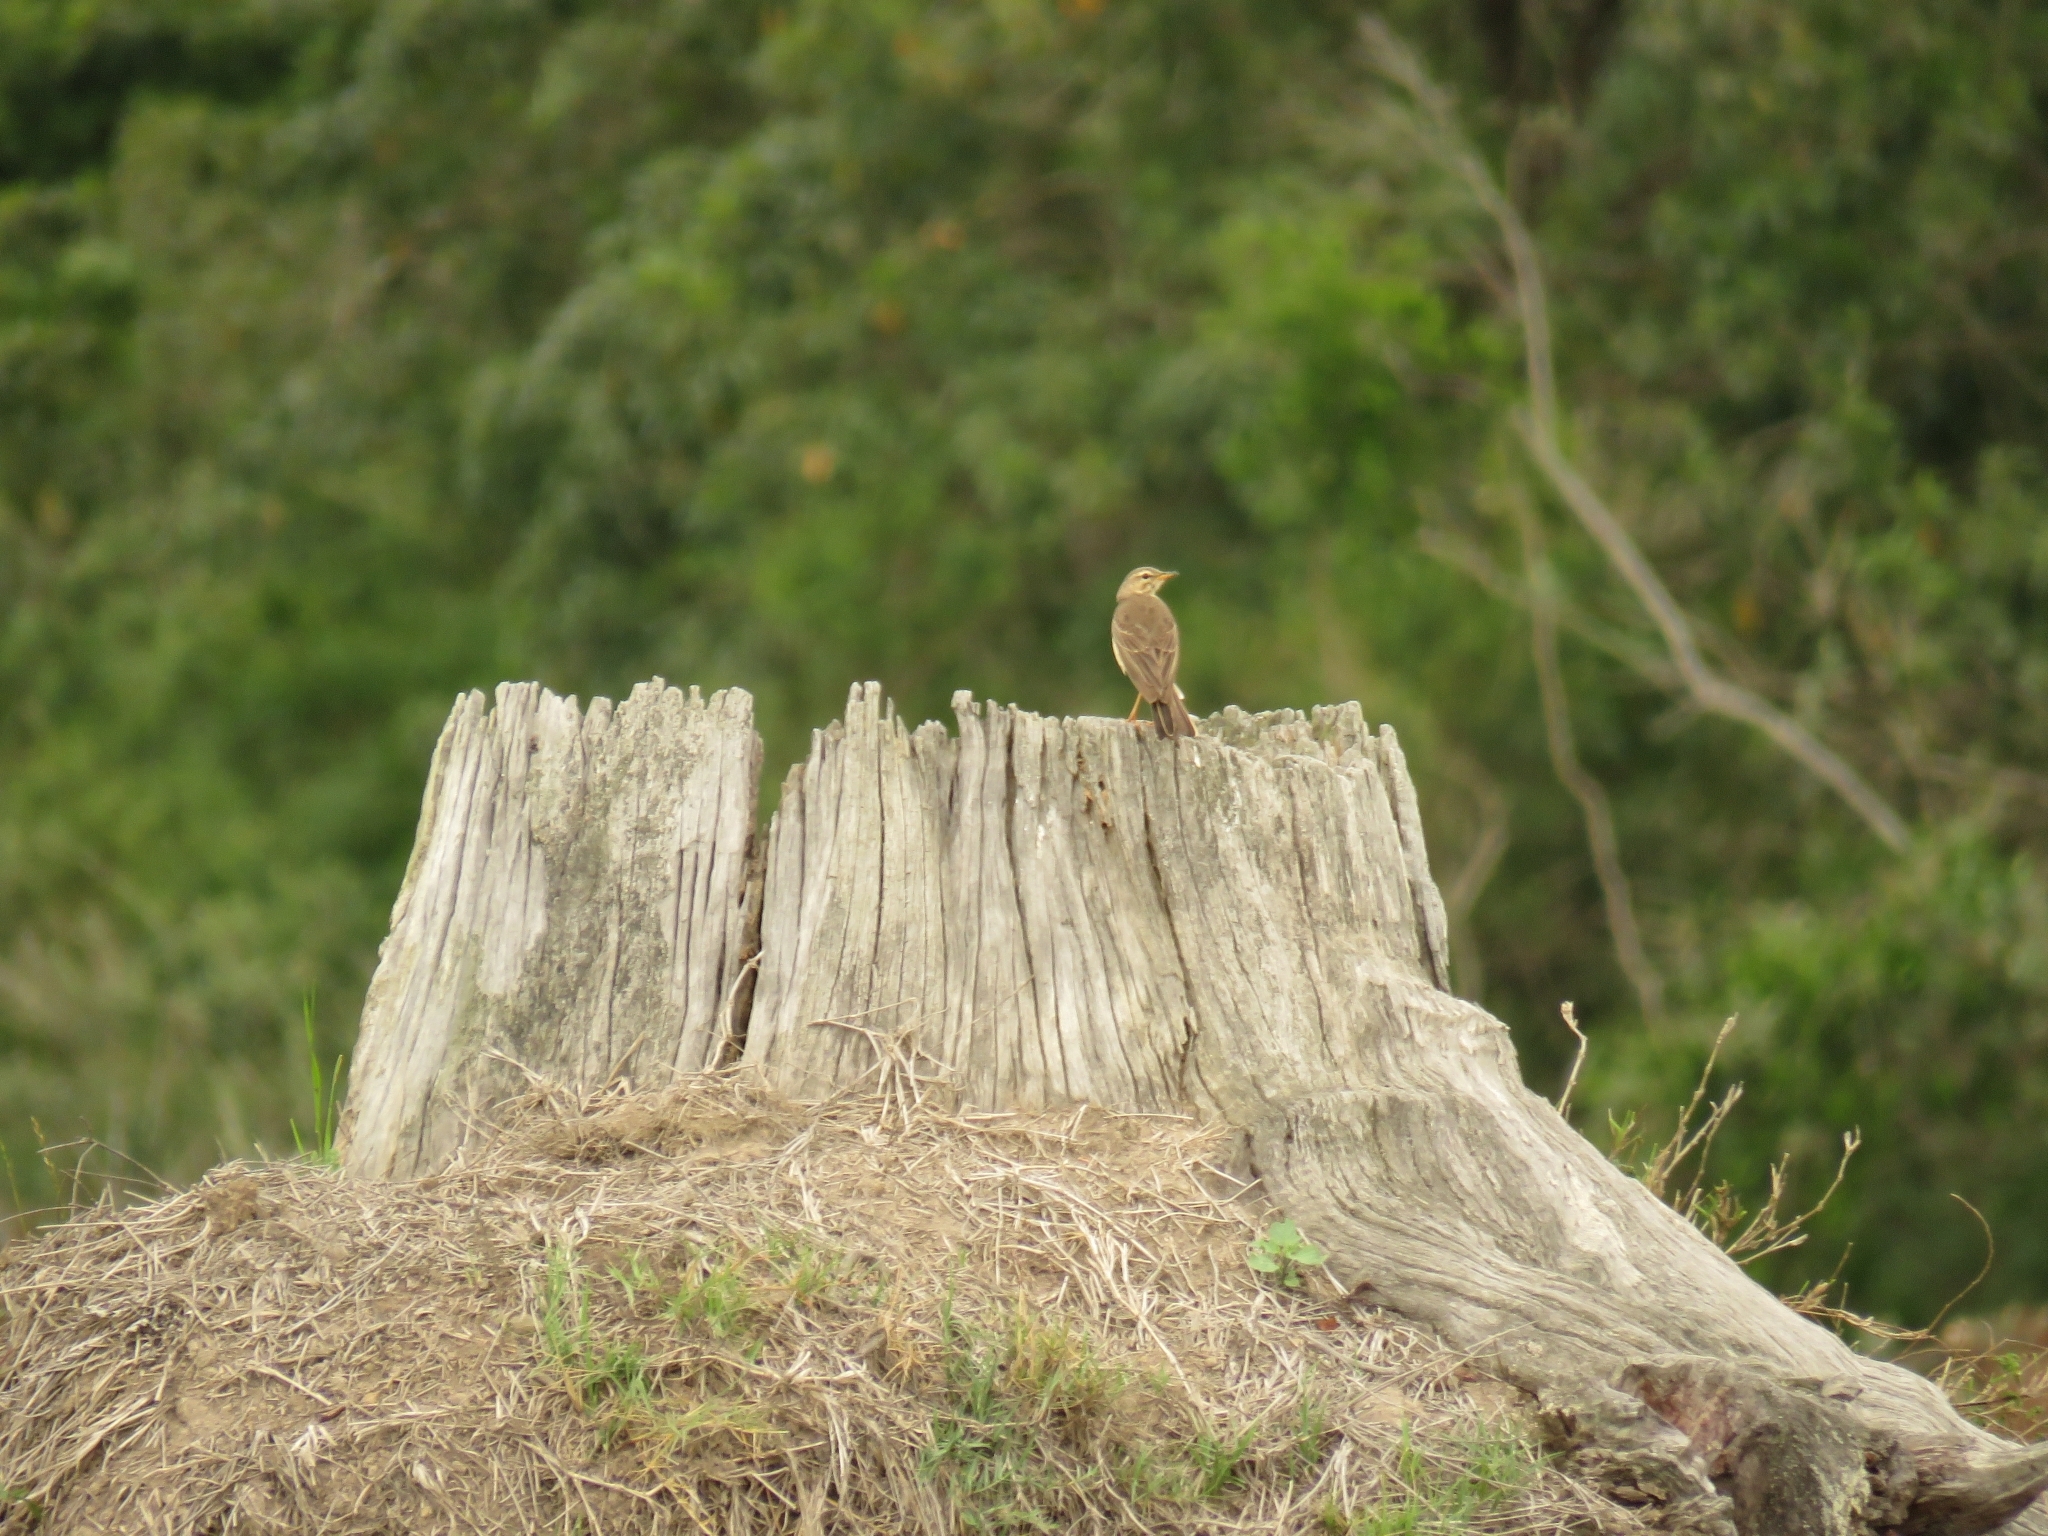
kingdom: Animalia
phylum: Chordata
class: Aves
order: Passeriformes
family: Motacillidae
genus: Anthus
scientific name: Anthus leucophrys
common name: Plain-backed pipit
